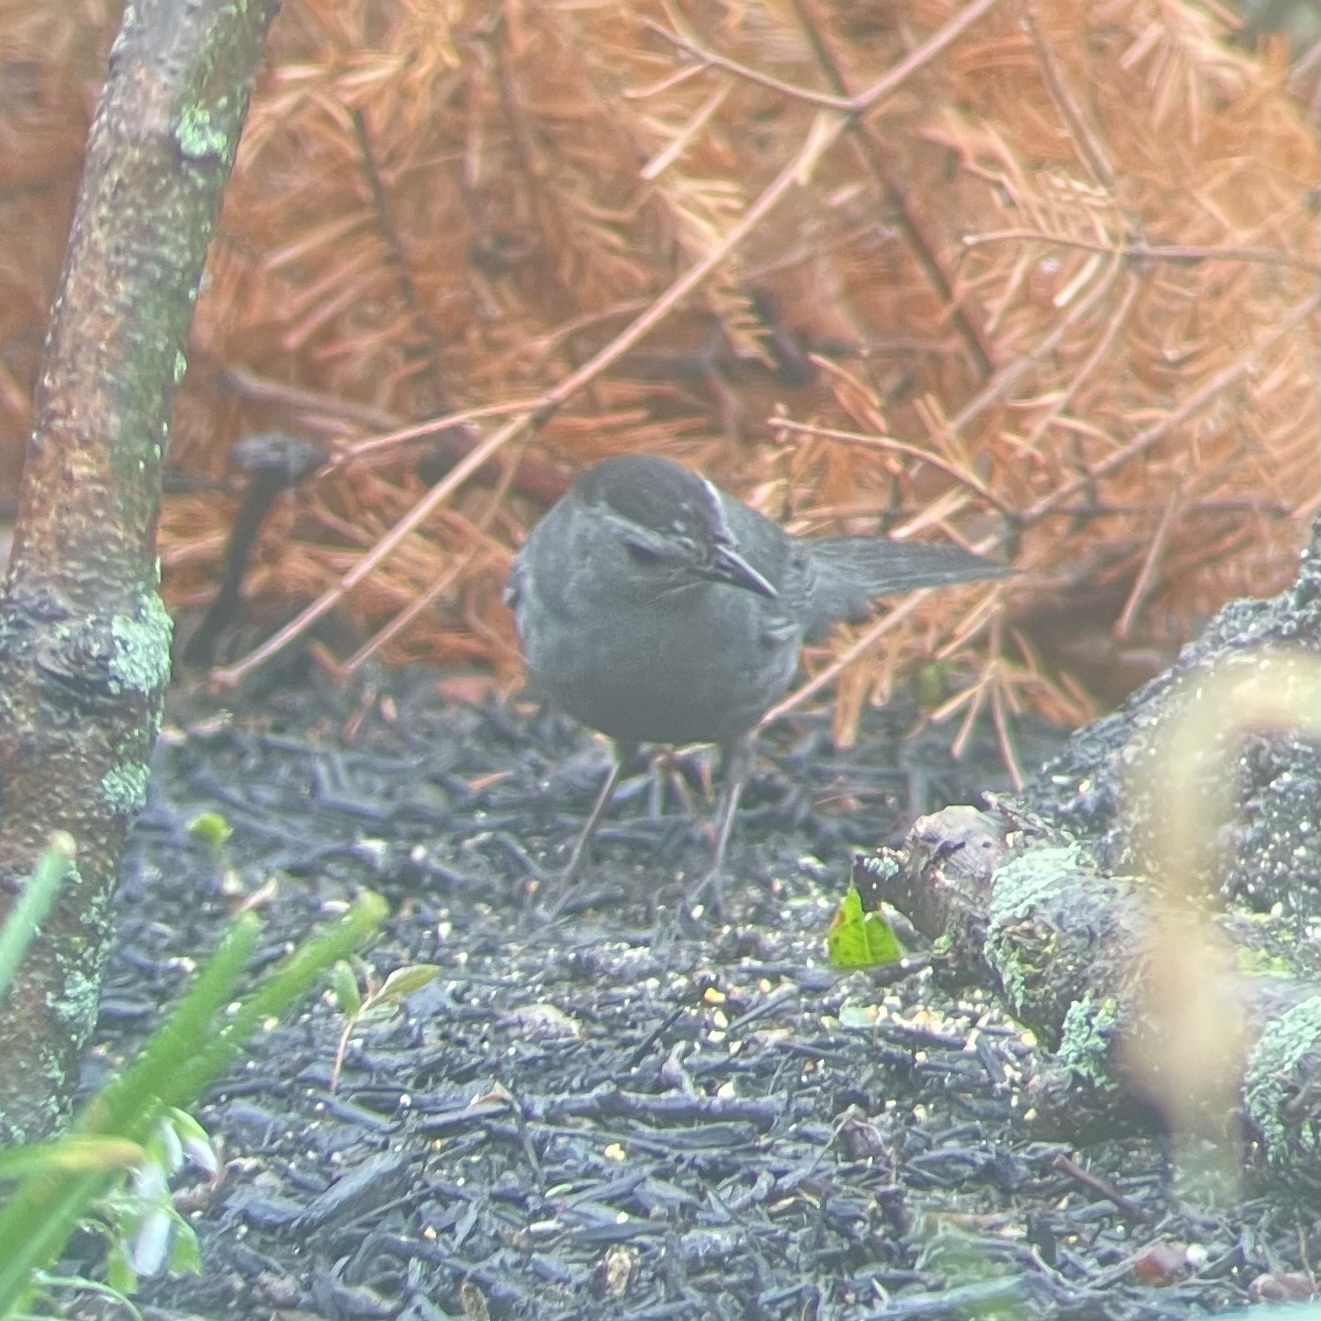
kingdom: Animalia
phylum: Chordata
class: Aves
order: Passeriformes
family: Mimidae
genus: Dumetella
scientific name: Dumetella carolinensis
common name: Gray catbird
